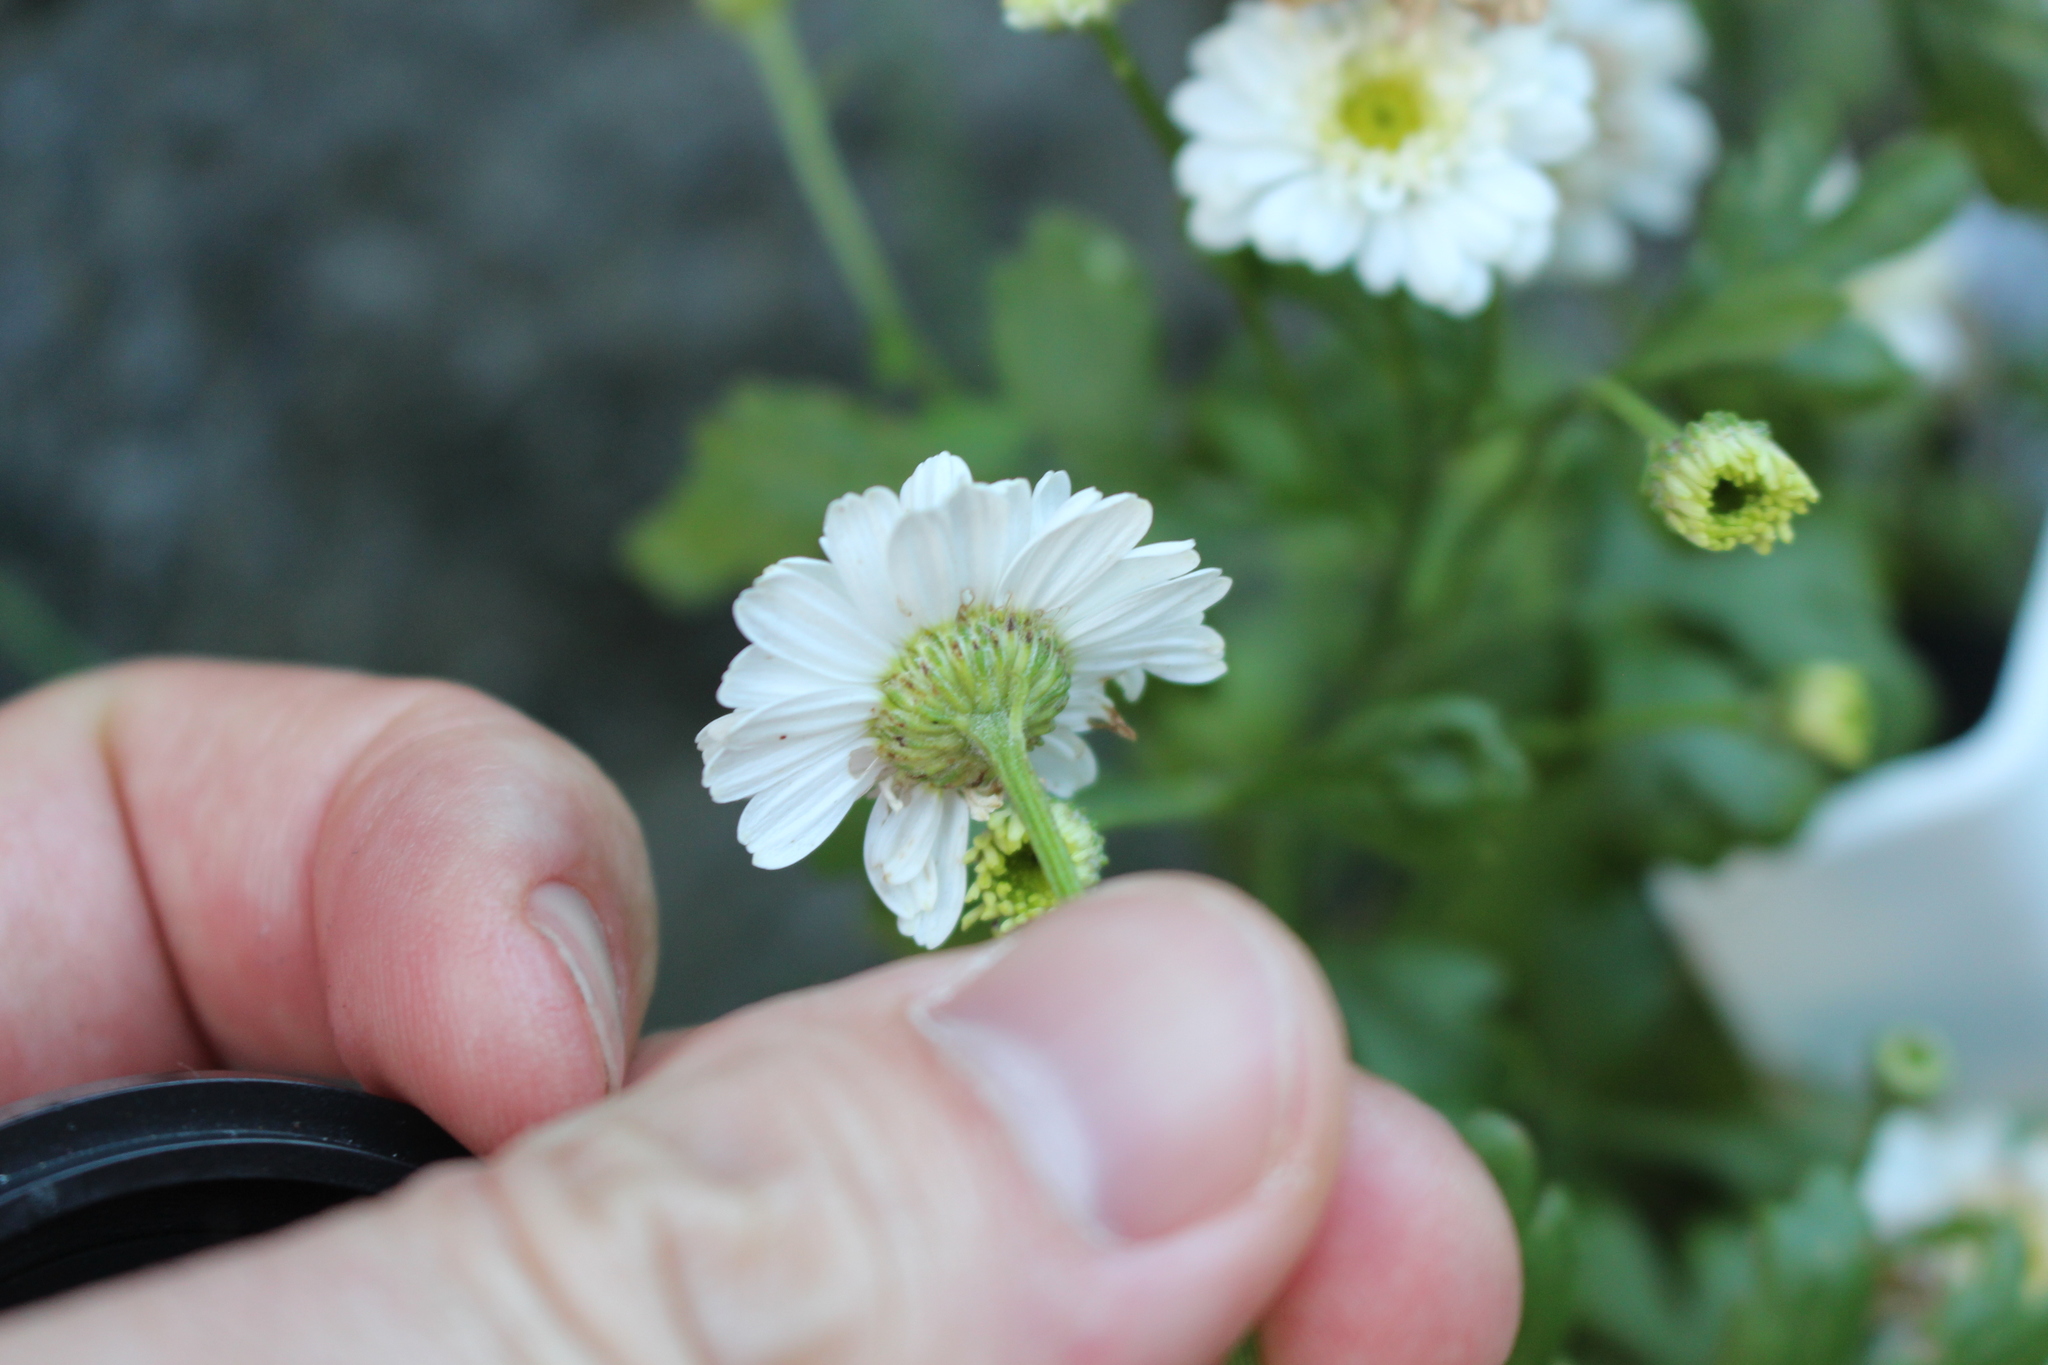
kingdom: Plantae
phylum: Tracheophyta
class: Magnoliopsida
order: Asterales
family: Asteraceae
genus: Tanacetum
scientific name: Tanacetum parthenium
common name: Feverfew
